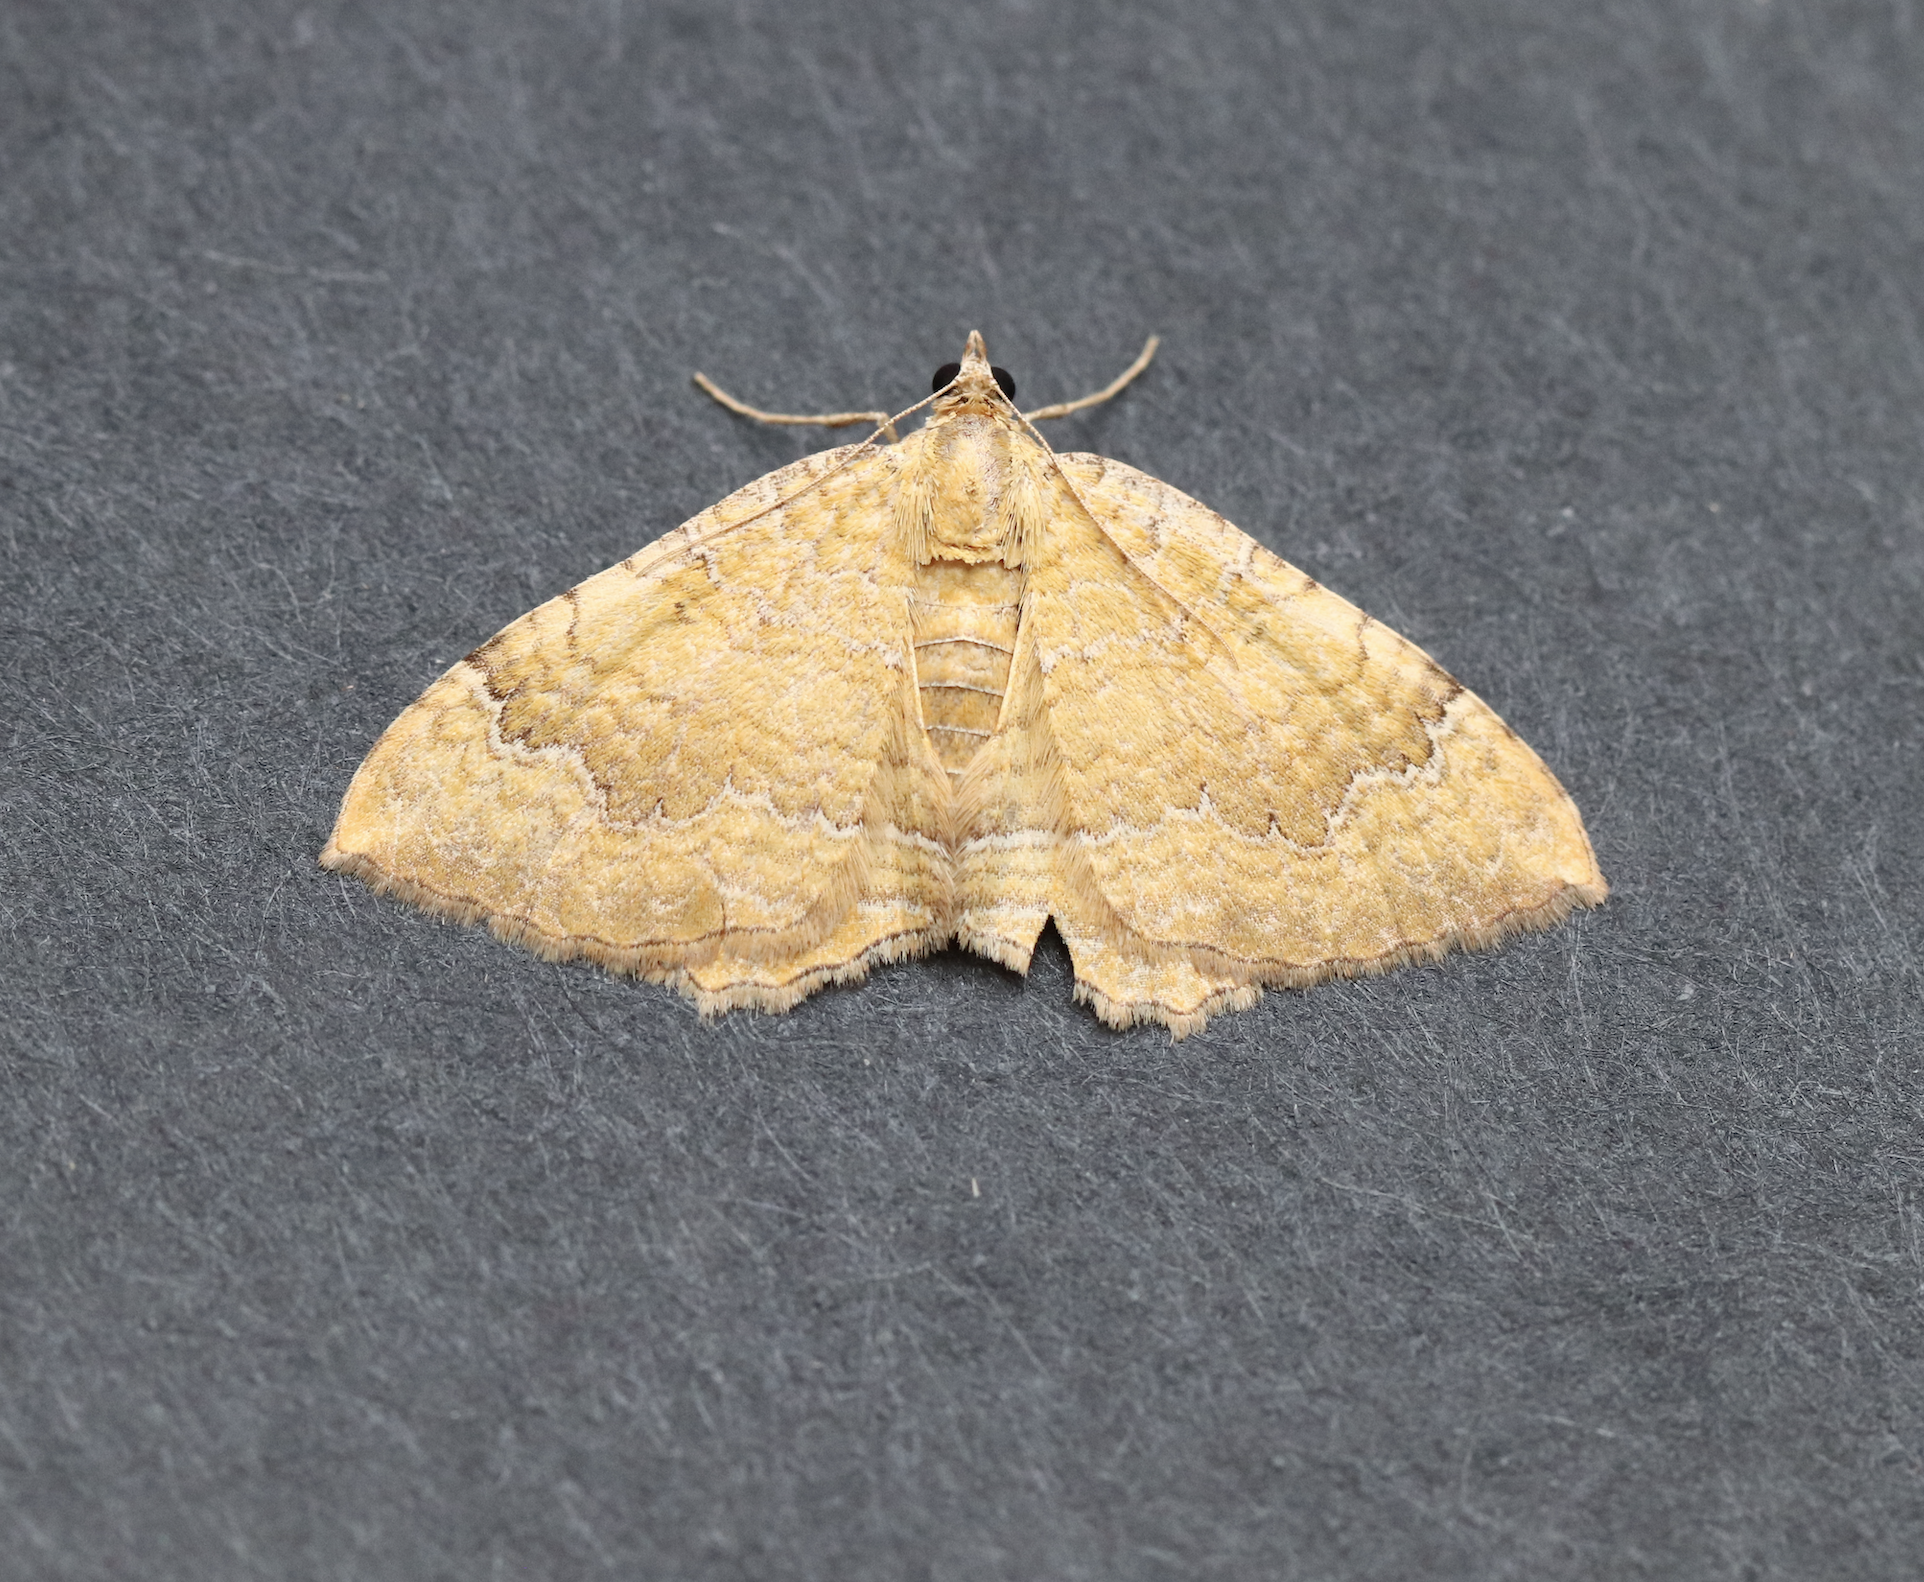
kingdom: Animalia
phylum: Arthropoda
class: Insecta
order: Lepidoptera
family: Geometridae
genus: Camptogramma
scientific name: Camptogramma bilineata
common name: Yellow shell
